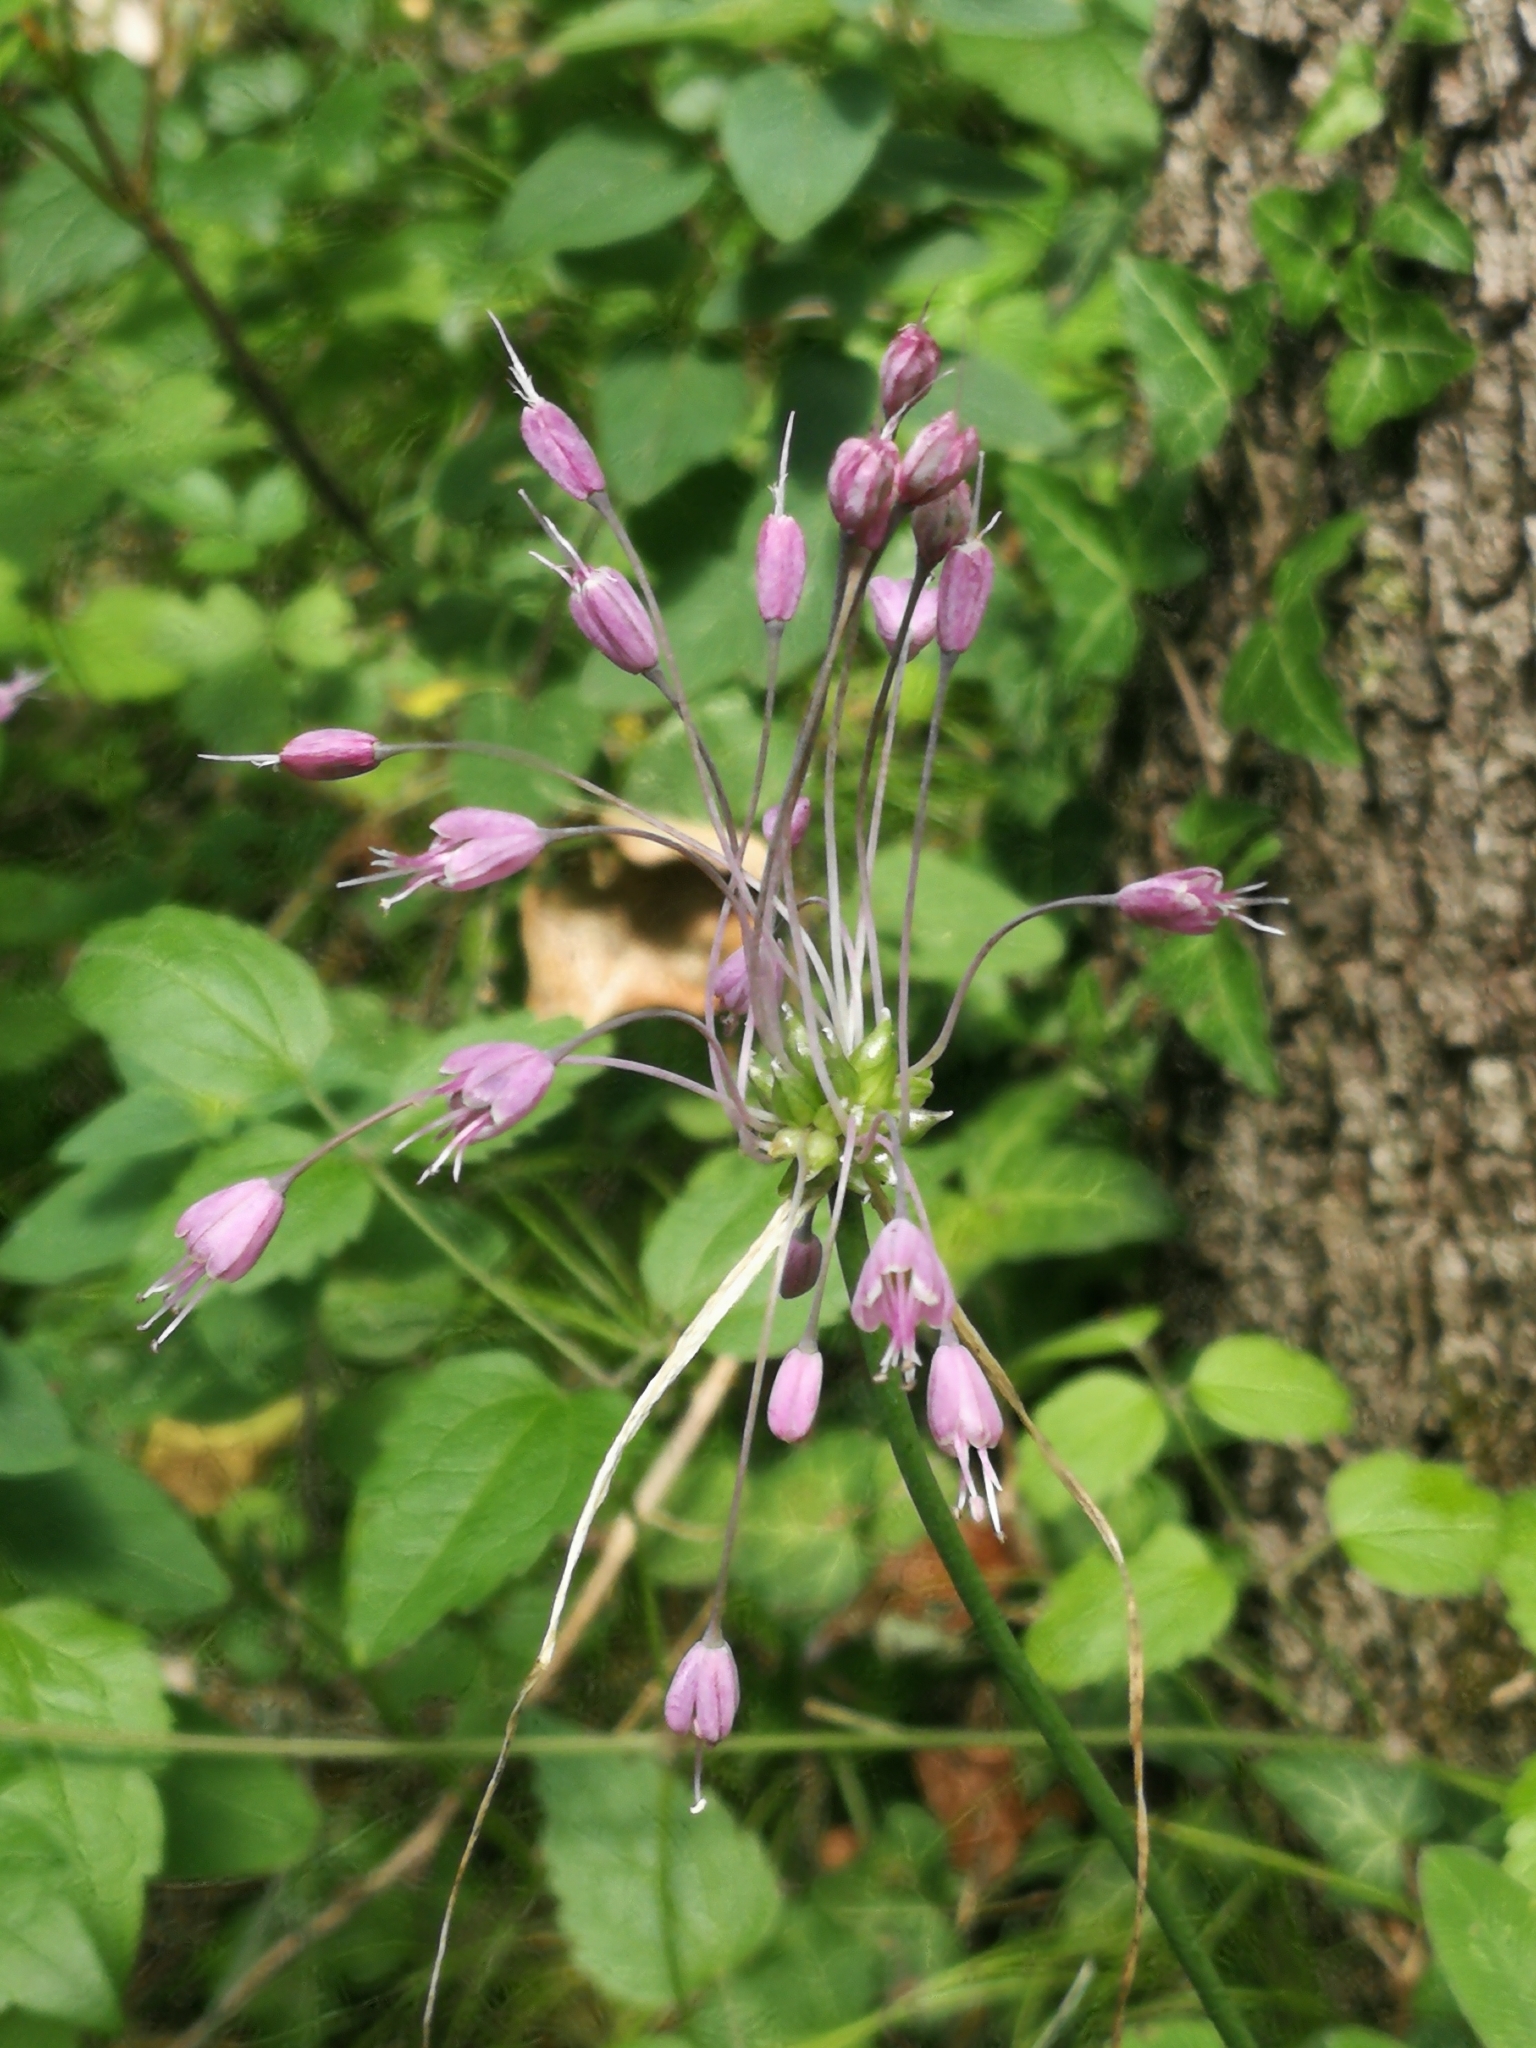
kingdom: Plantae
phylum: Tracheophyta
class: Liliopsida
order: Asparagales
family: Amaryllidaceae
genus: Allium
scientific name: Allium carinatum
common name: Keeled garlic
